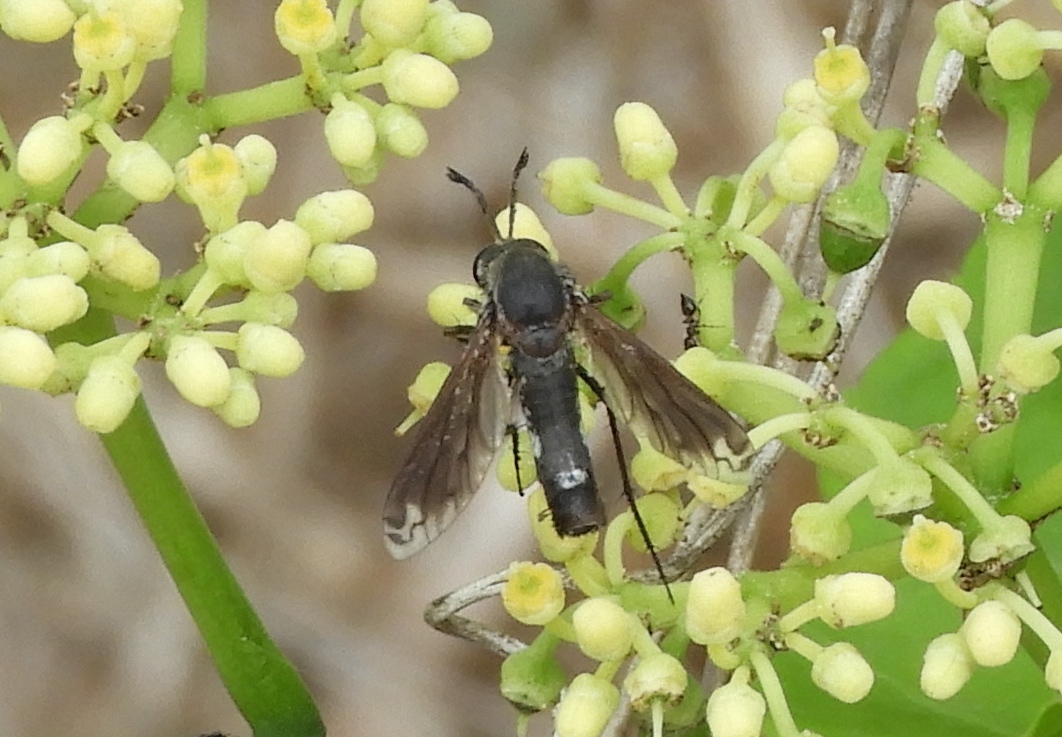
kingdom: Animalia
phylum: Arthropoda
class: Insecta
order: Diptera
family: Bombyliidae
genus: Lepidophora
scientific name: Lepidophora vetusta
